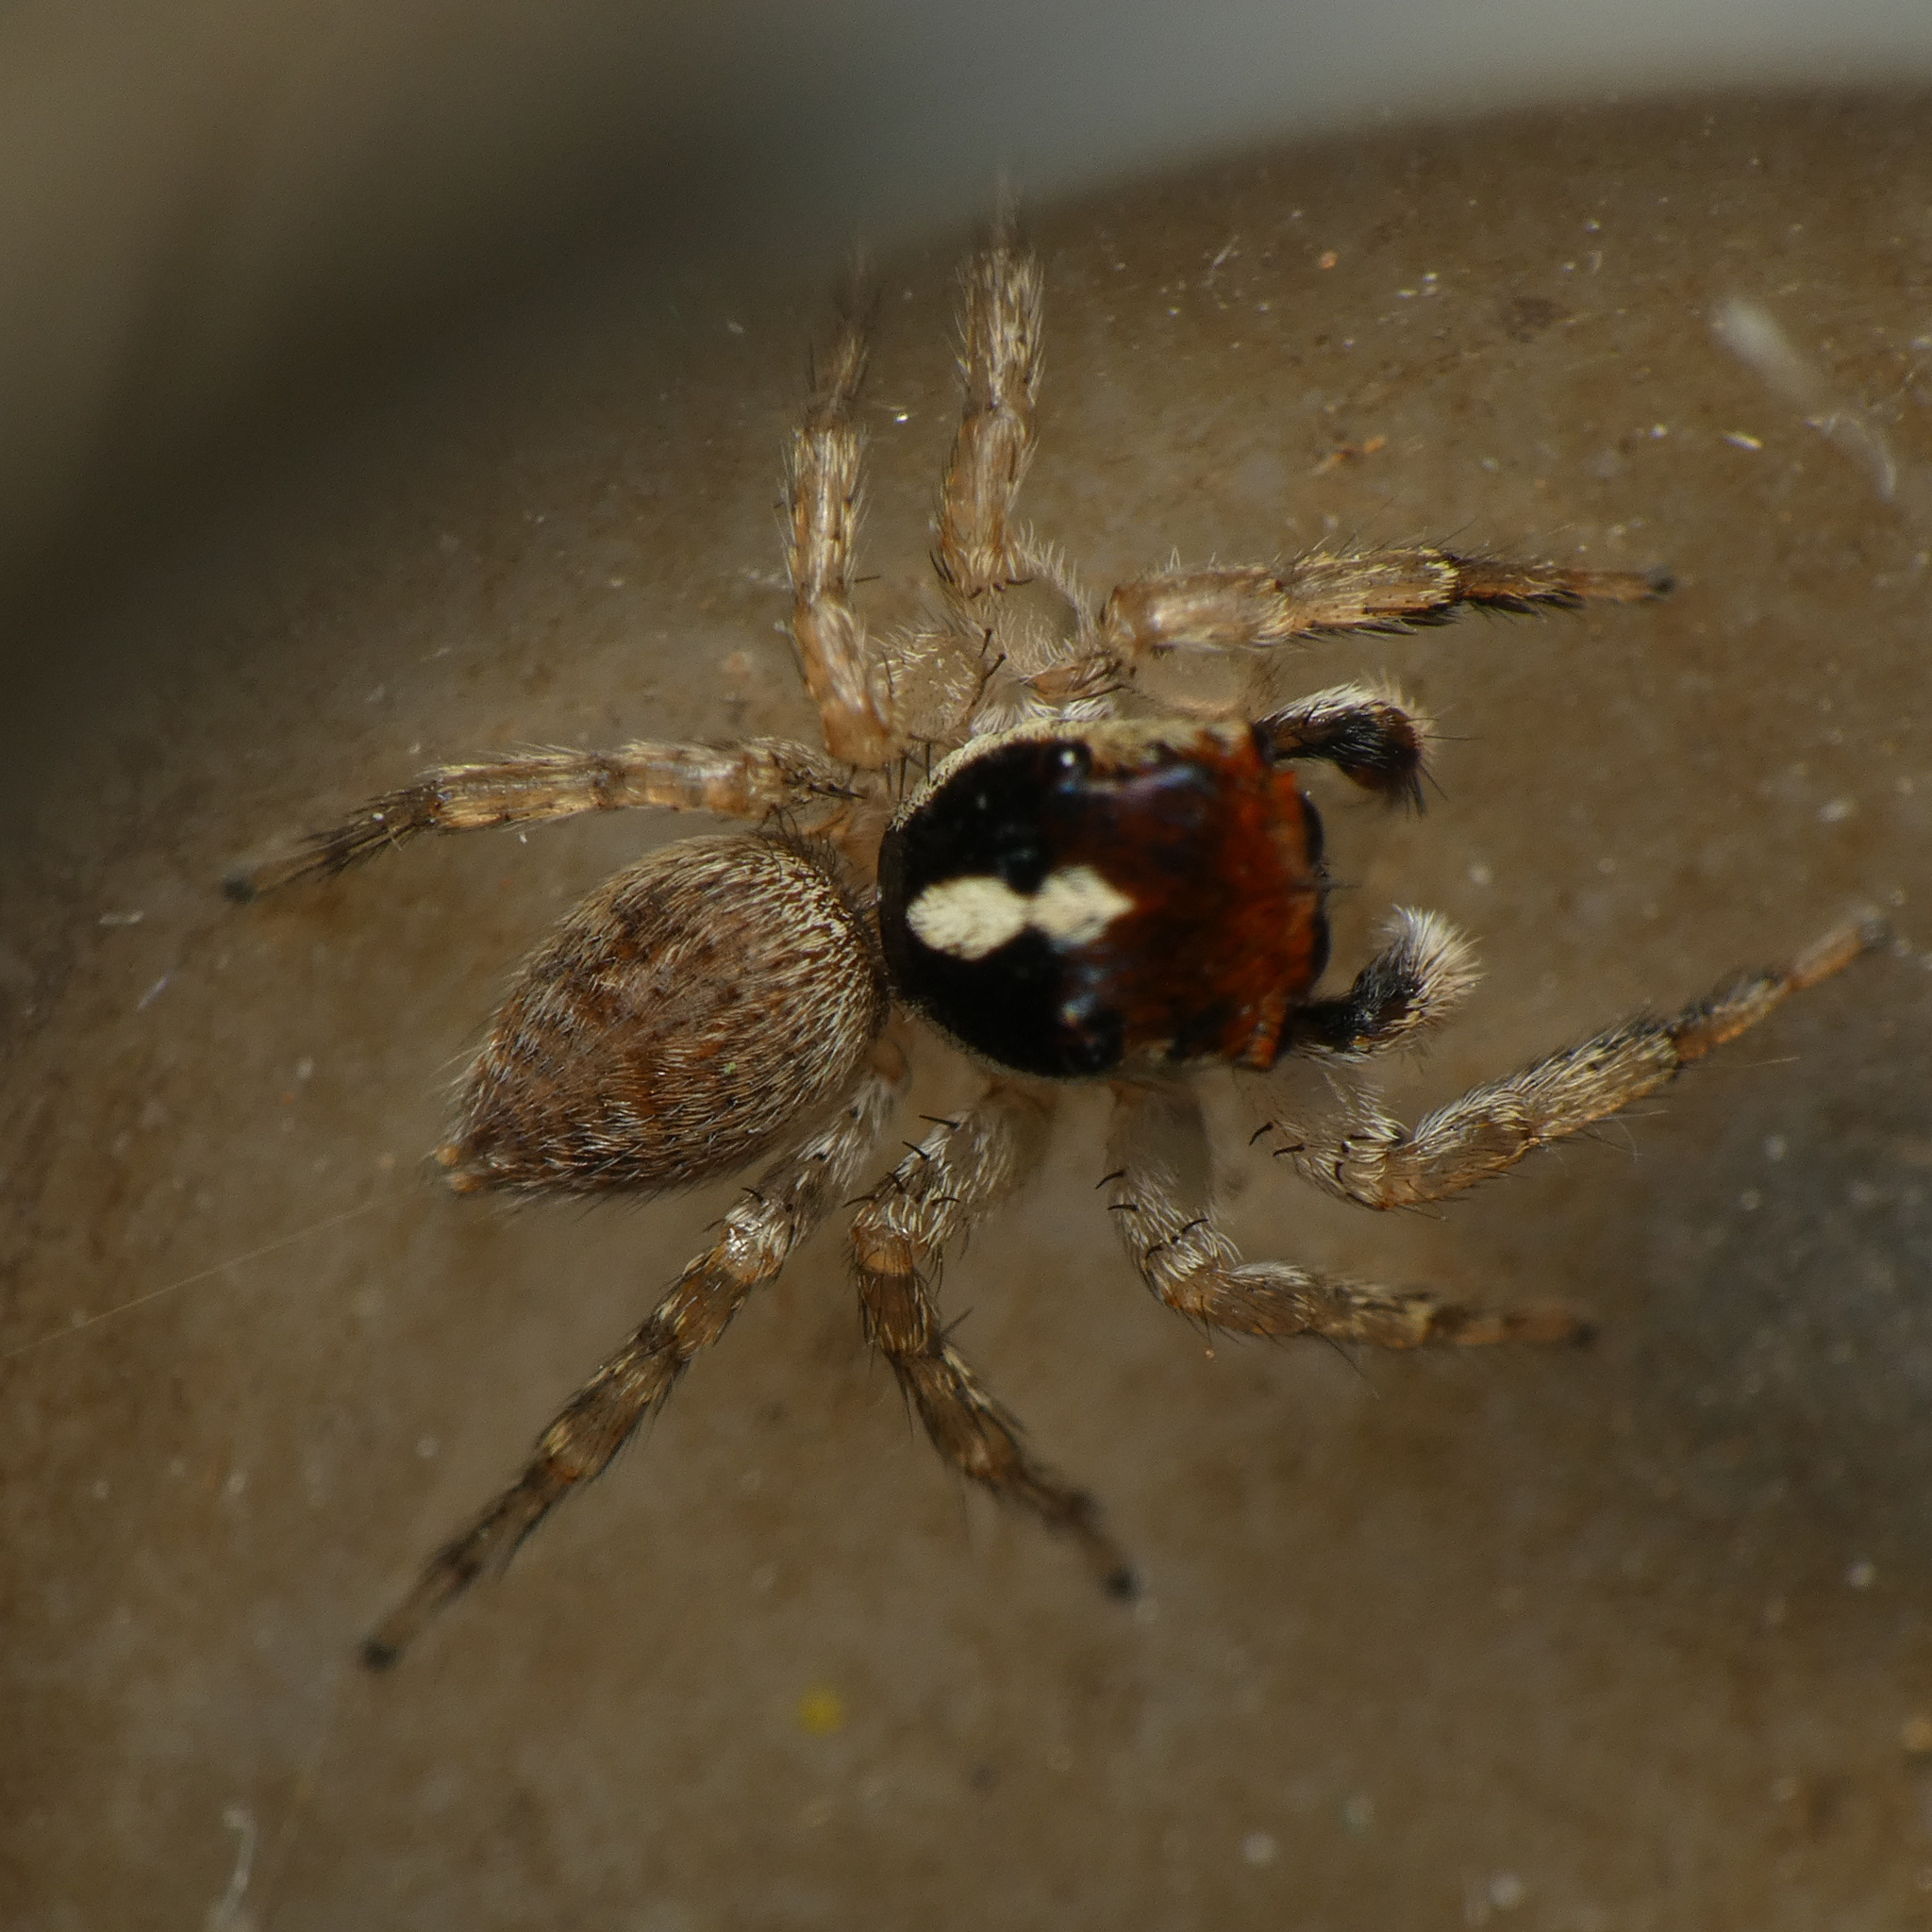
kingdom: Animalia
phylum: Arthropoda
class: Arachnida
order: Araneae
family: Salticidae
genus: Thyenula
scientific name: Thyenula munda
